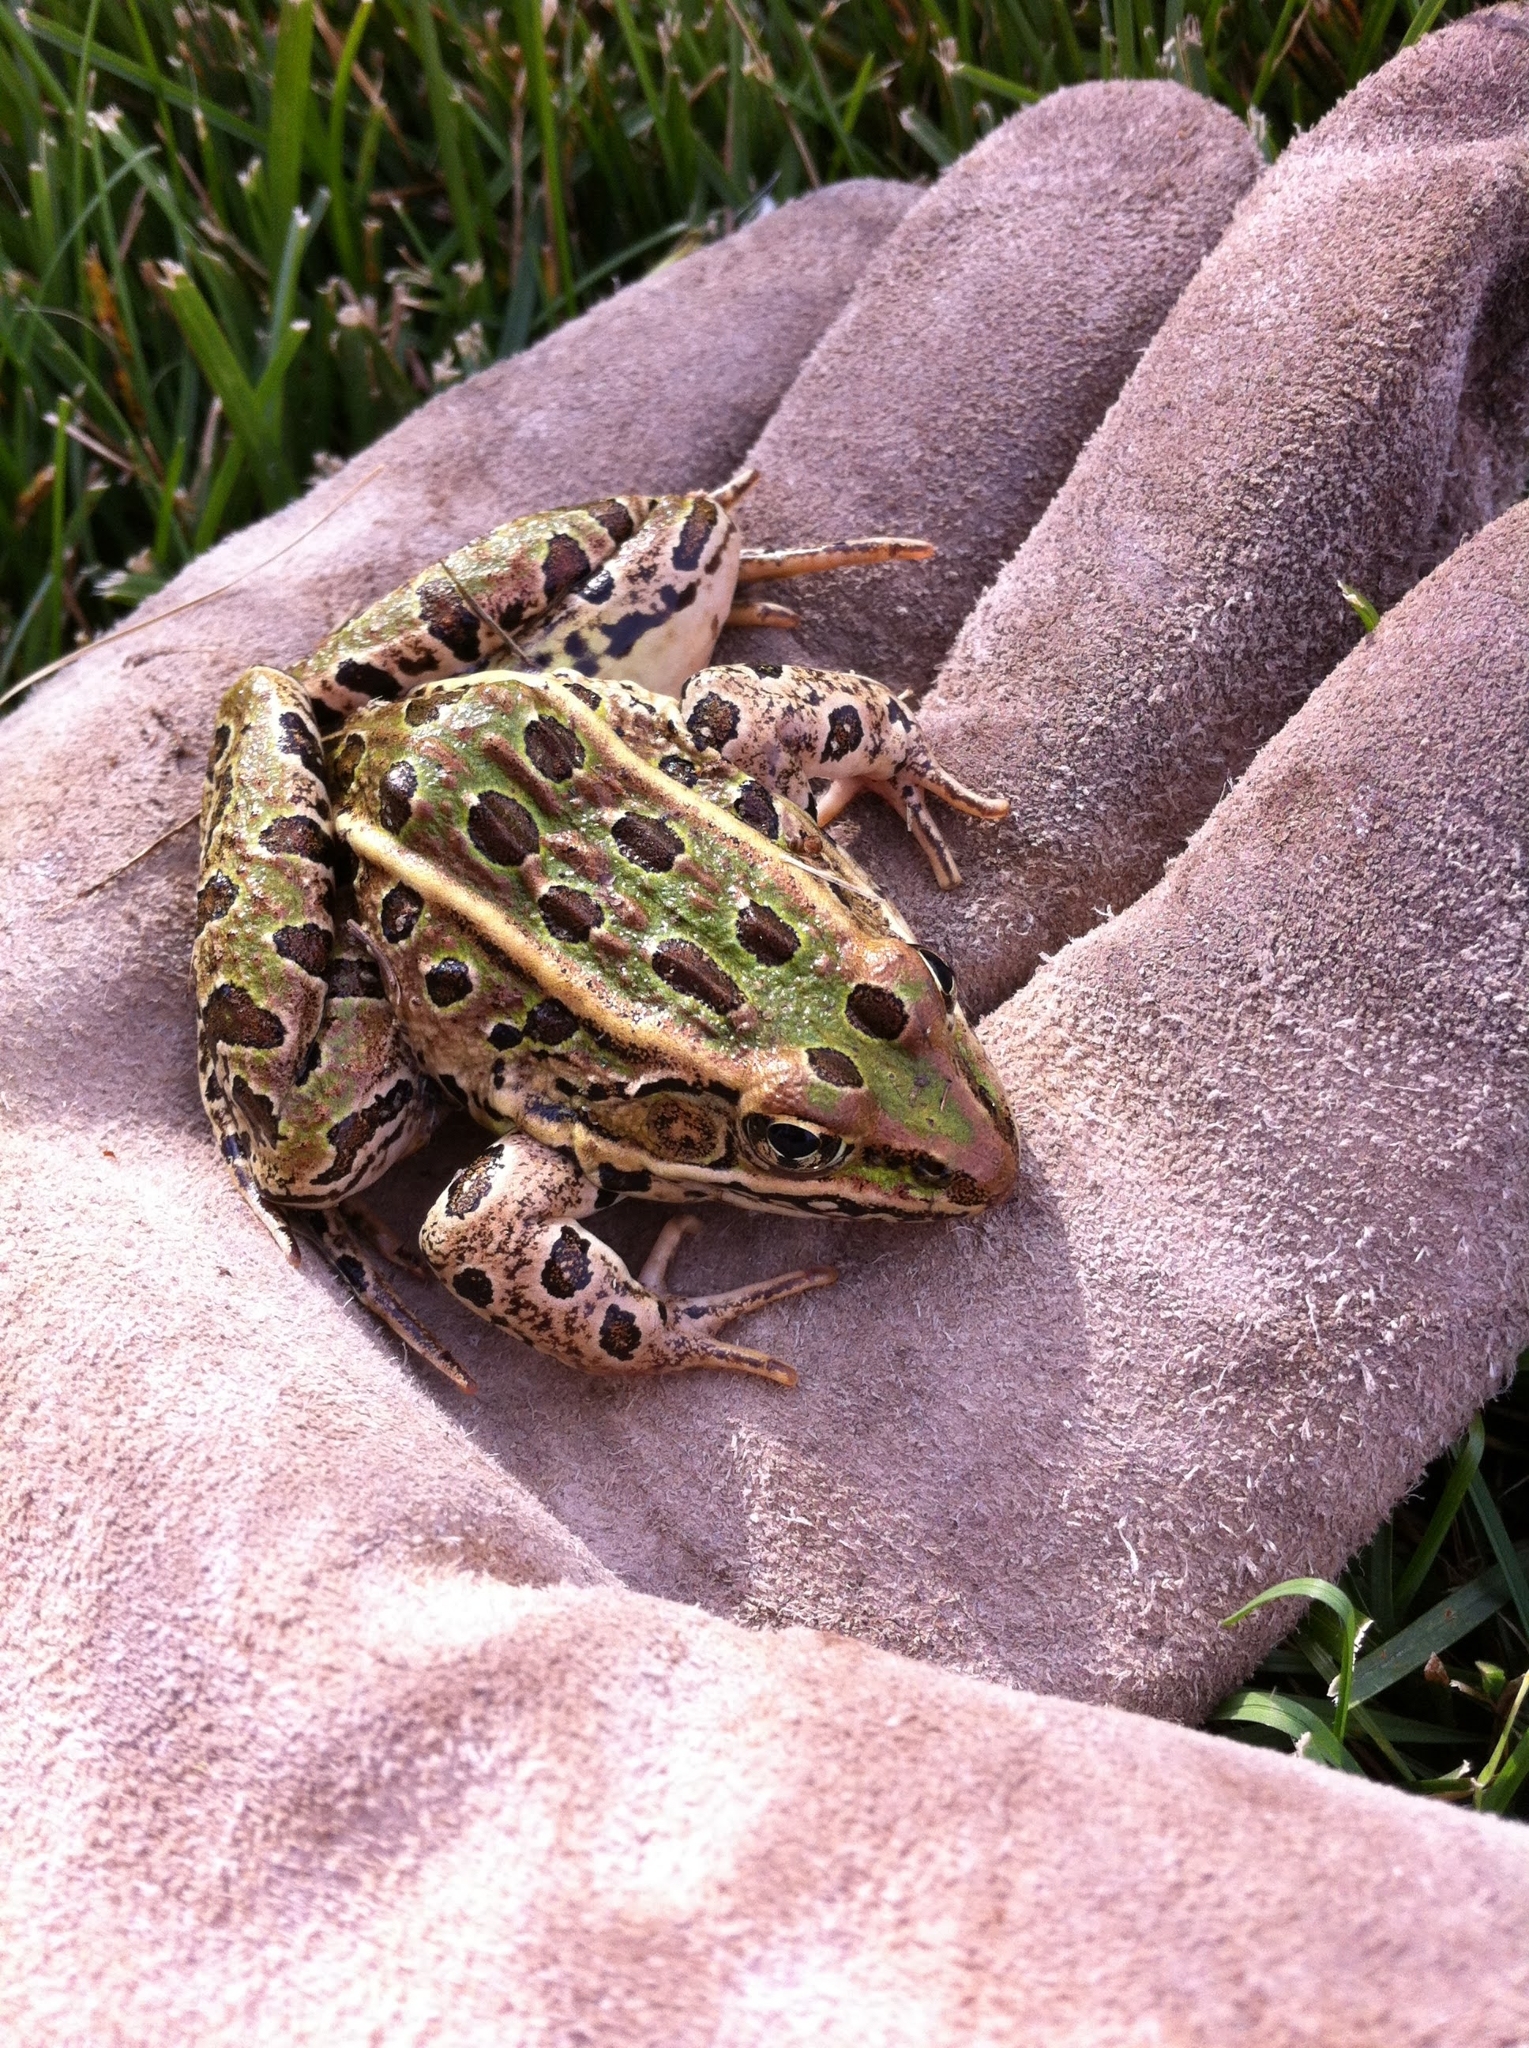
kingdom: Animalia
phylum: Chordata
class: Amphibia
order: Anura
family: Ranidae
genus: Lithobates
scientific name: Lithobates pipiens
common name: Northern leopard frog
